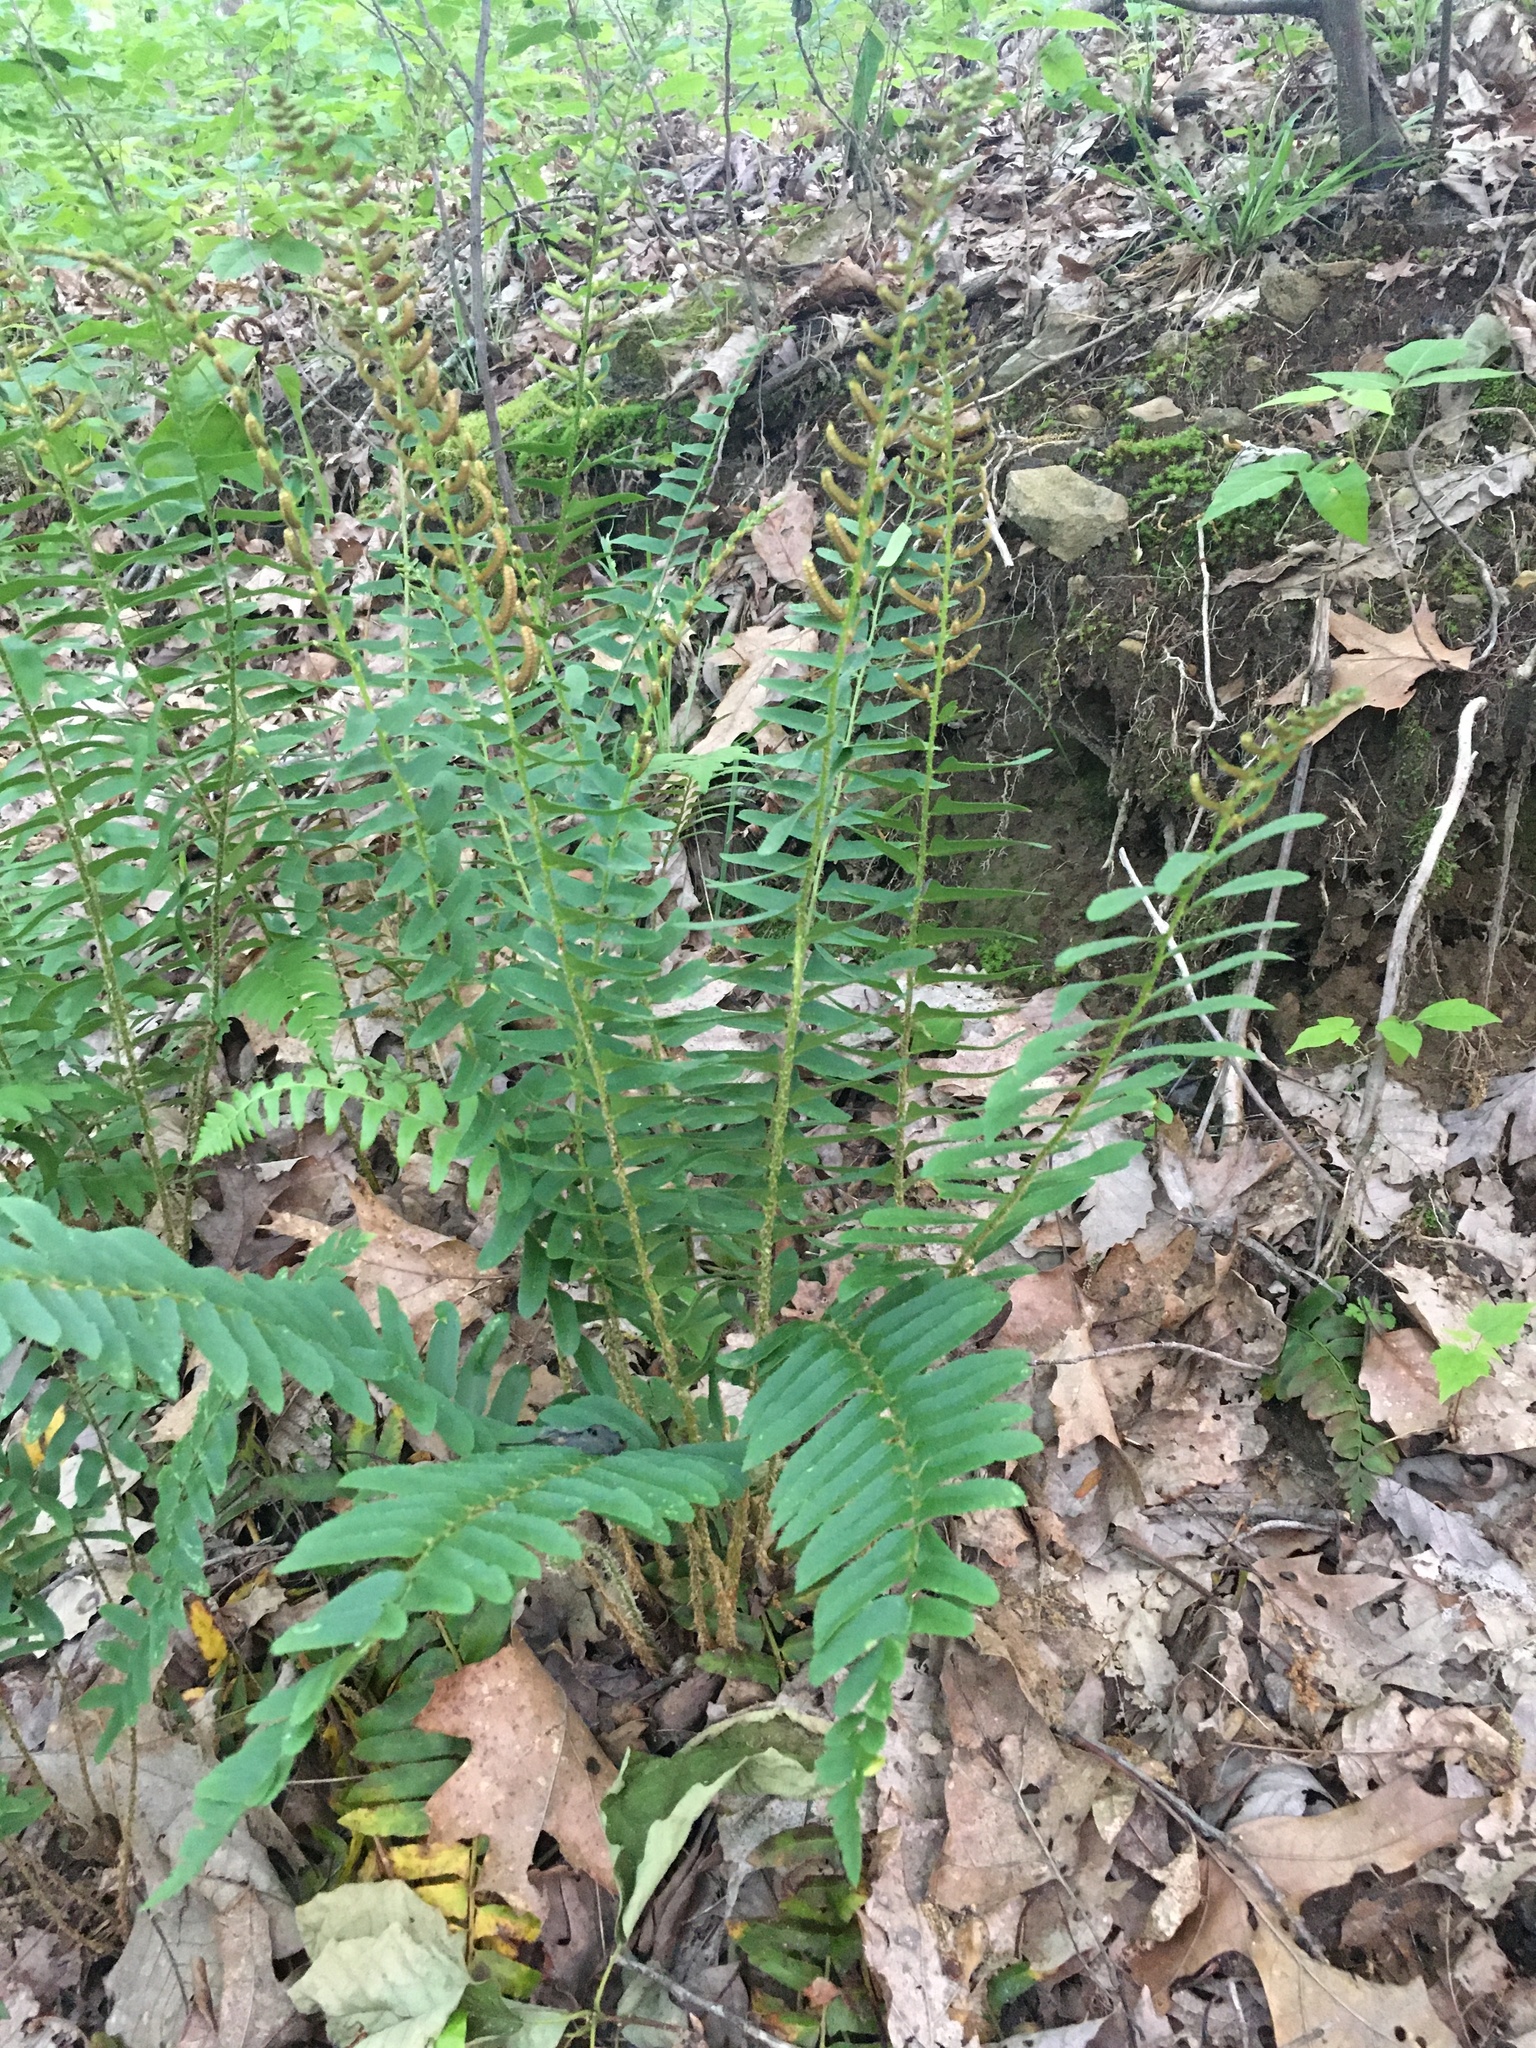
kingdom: Plantae
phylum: Tracheophyta
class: Polypodiopsida
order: Polypodiales
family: Dryopteridaceae
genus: Polystichum
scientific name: Polystichum acrostichoides
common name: Christmas fern
